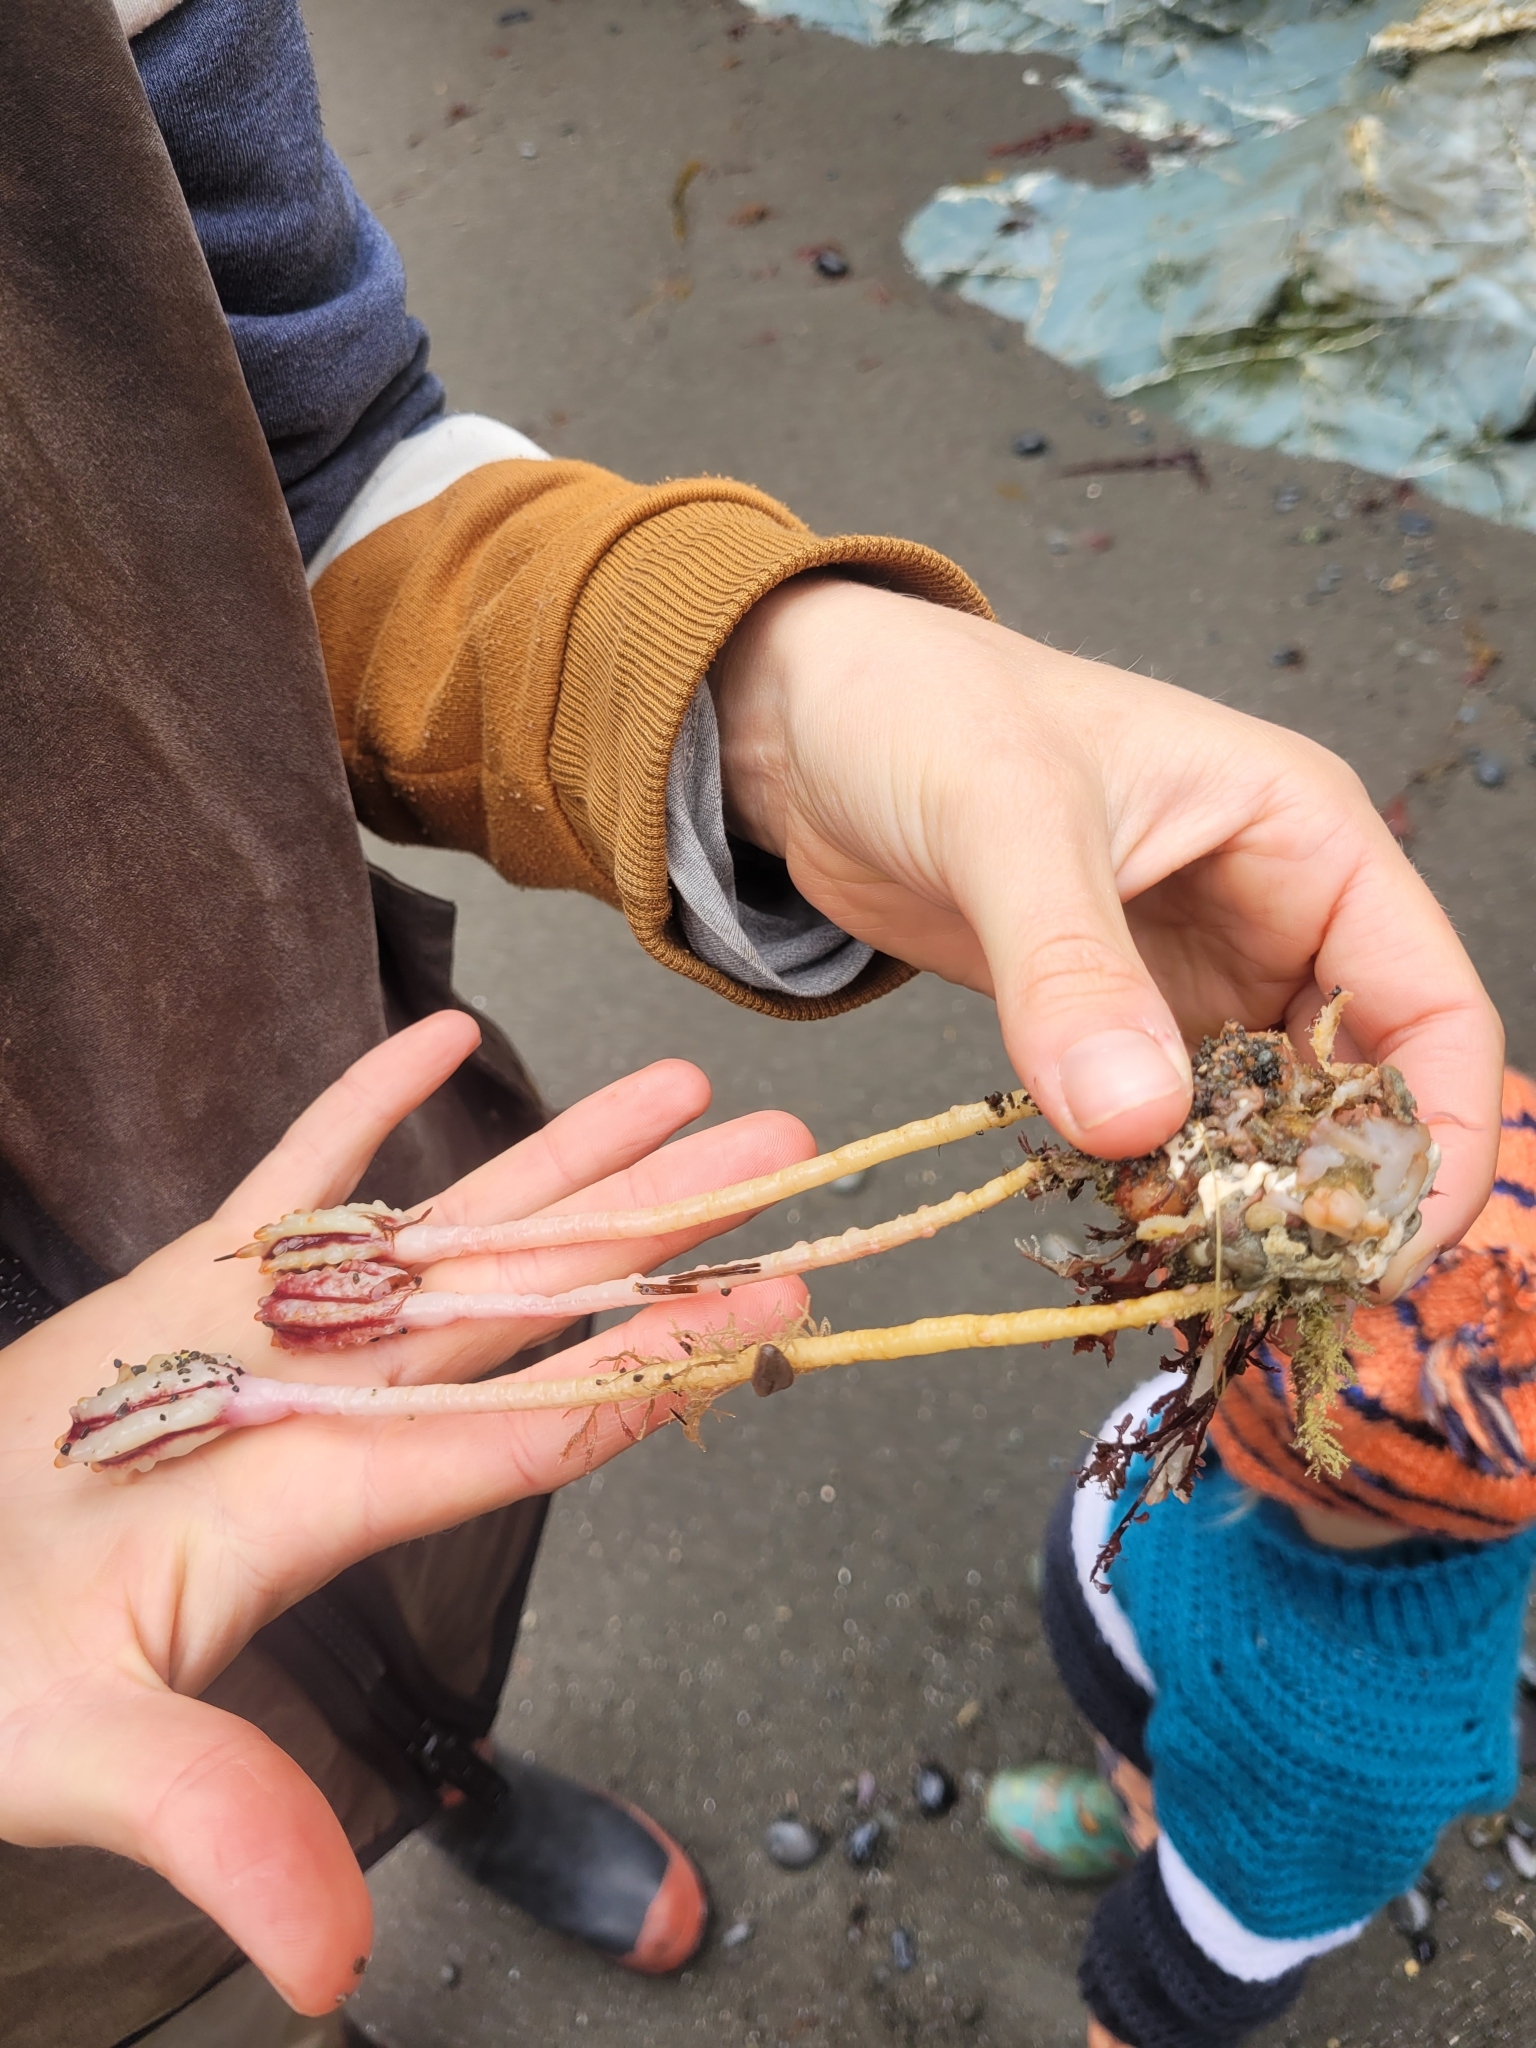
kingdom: Animalia
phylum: Chordata
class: Ascidiacea
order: Stolidobranchia
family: Pyuridae
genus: Pyura
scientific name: Pyura pachydermatina
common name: Sea tulip
